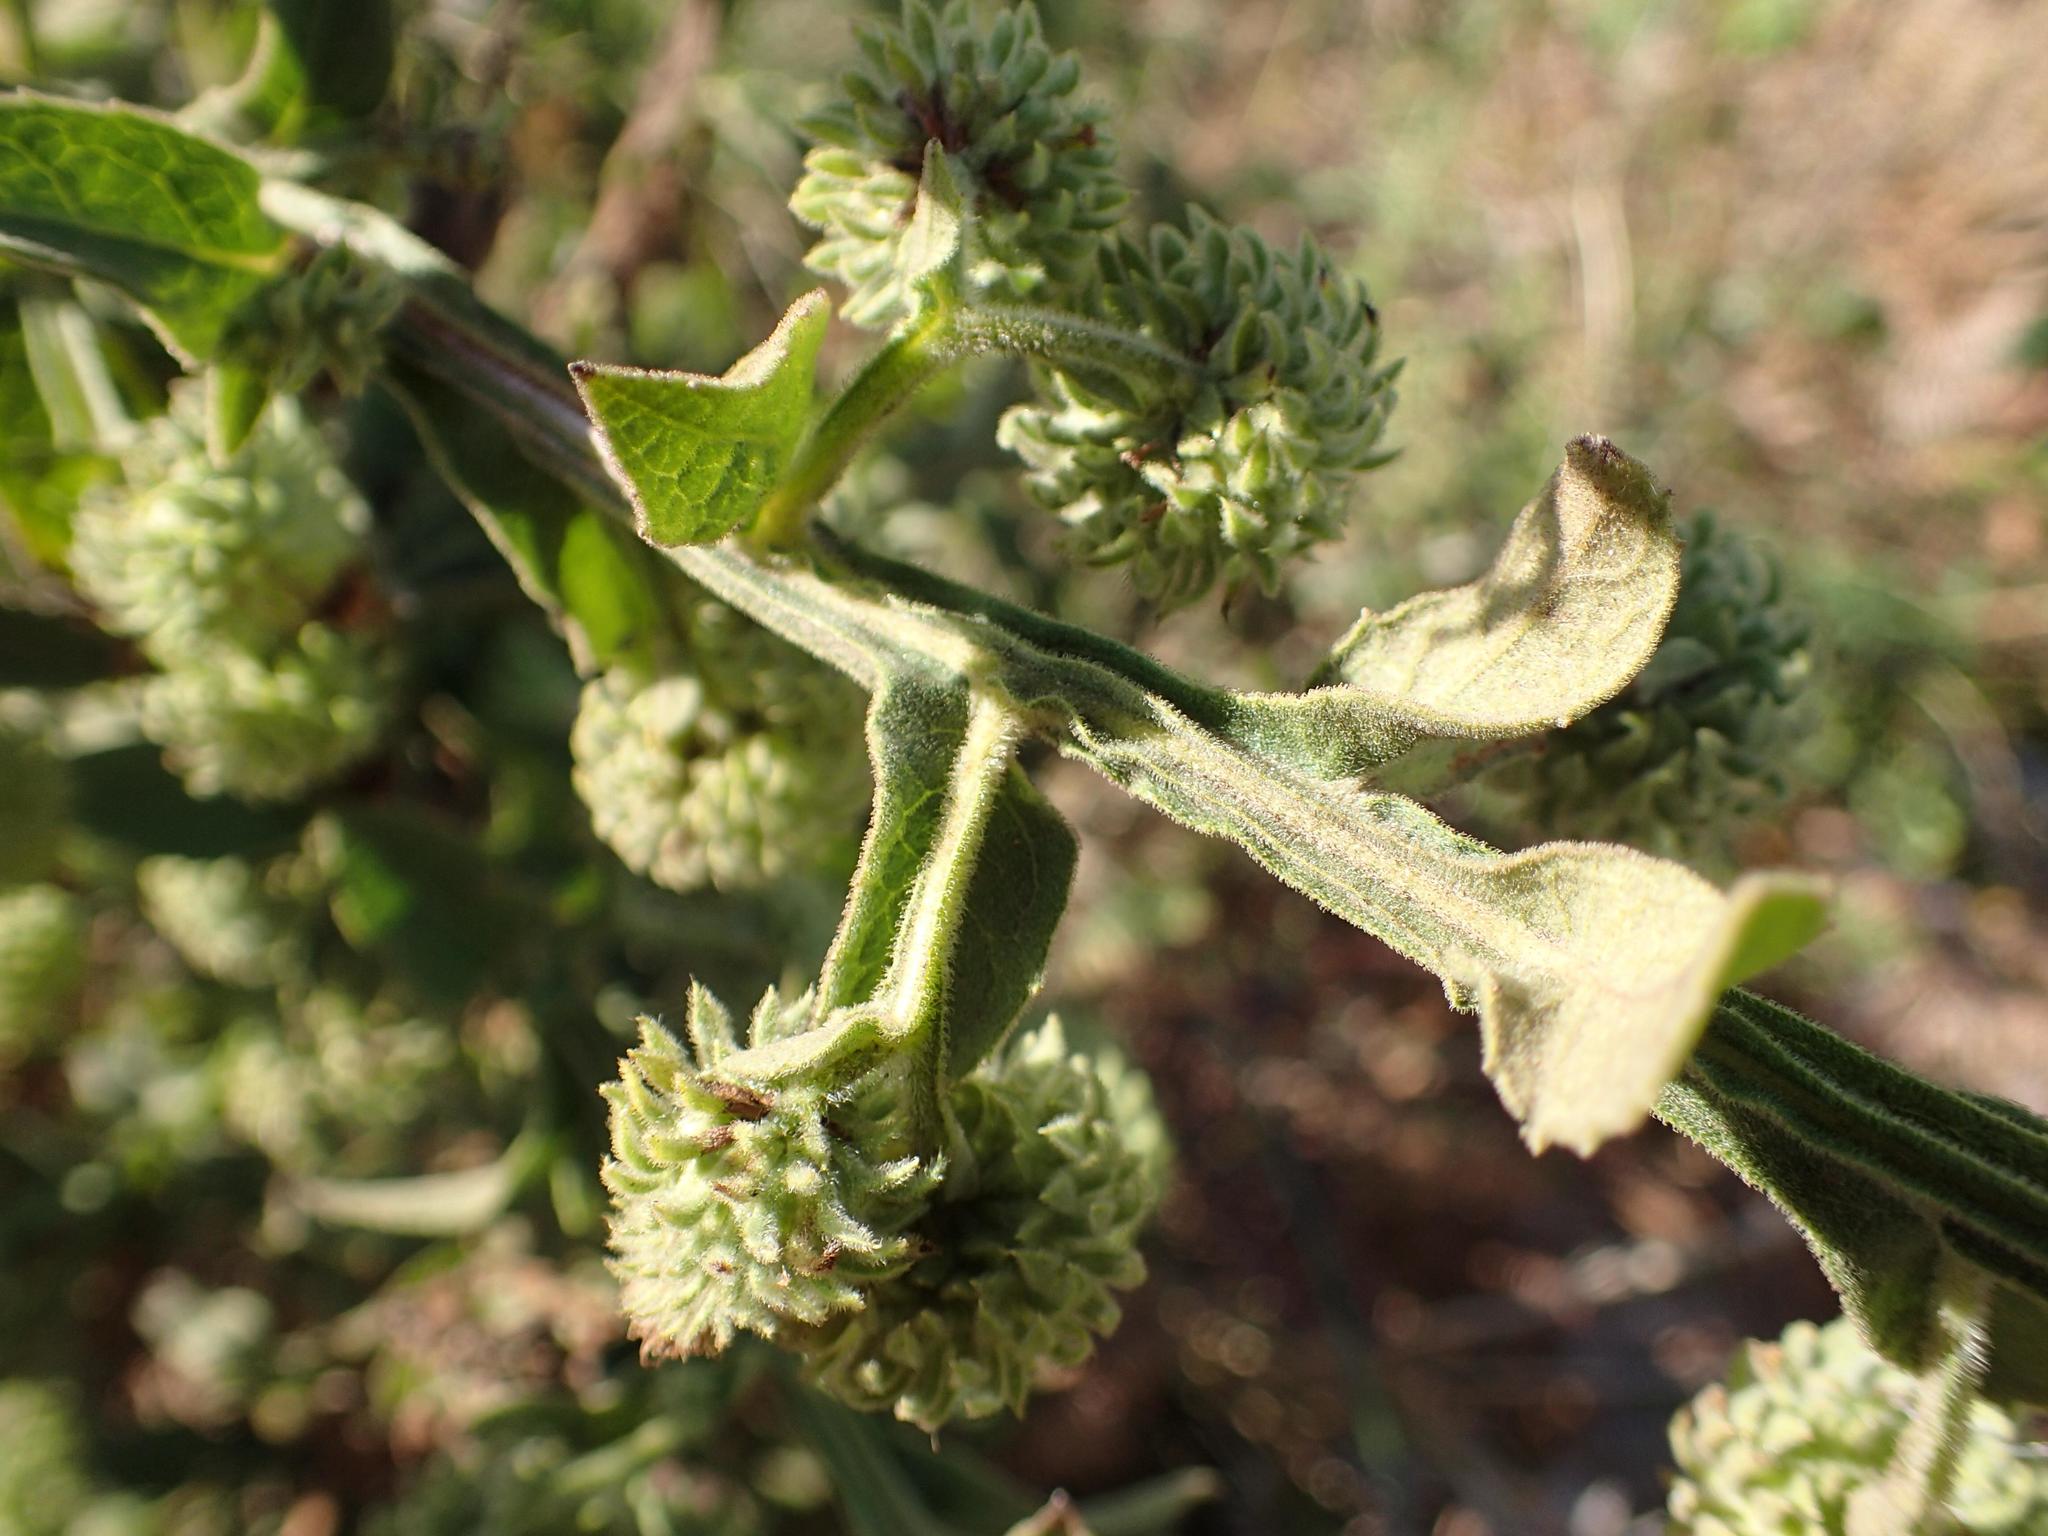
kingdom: Plantae
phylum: Tracheophyta
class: Magnoliopsida
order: Asterales
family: Asteraceae
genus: Laggera
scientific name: Laggera crispata
